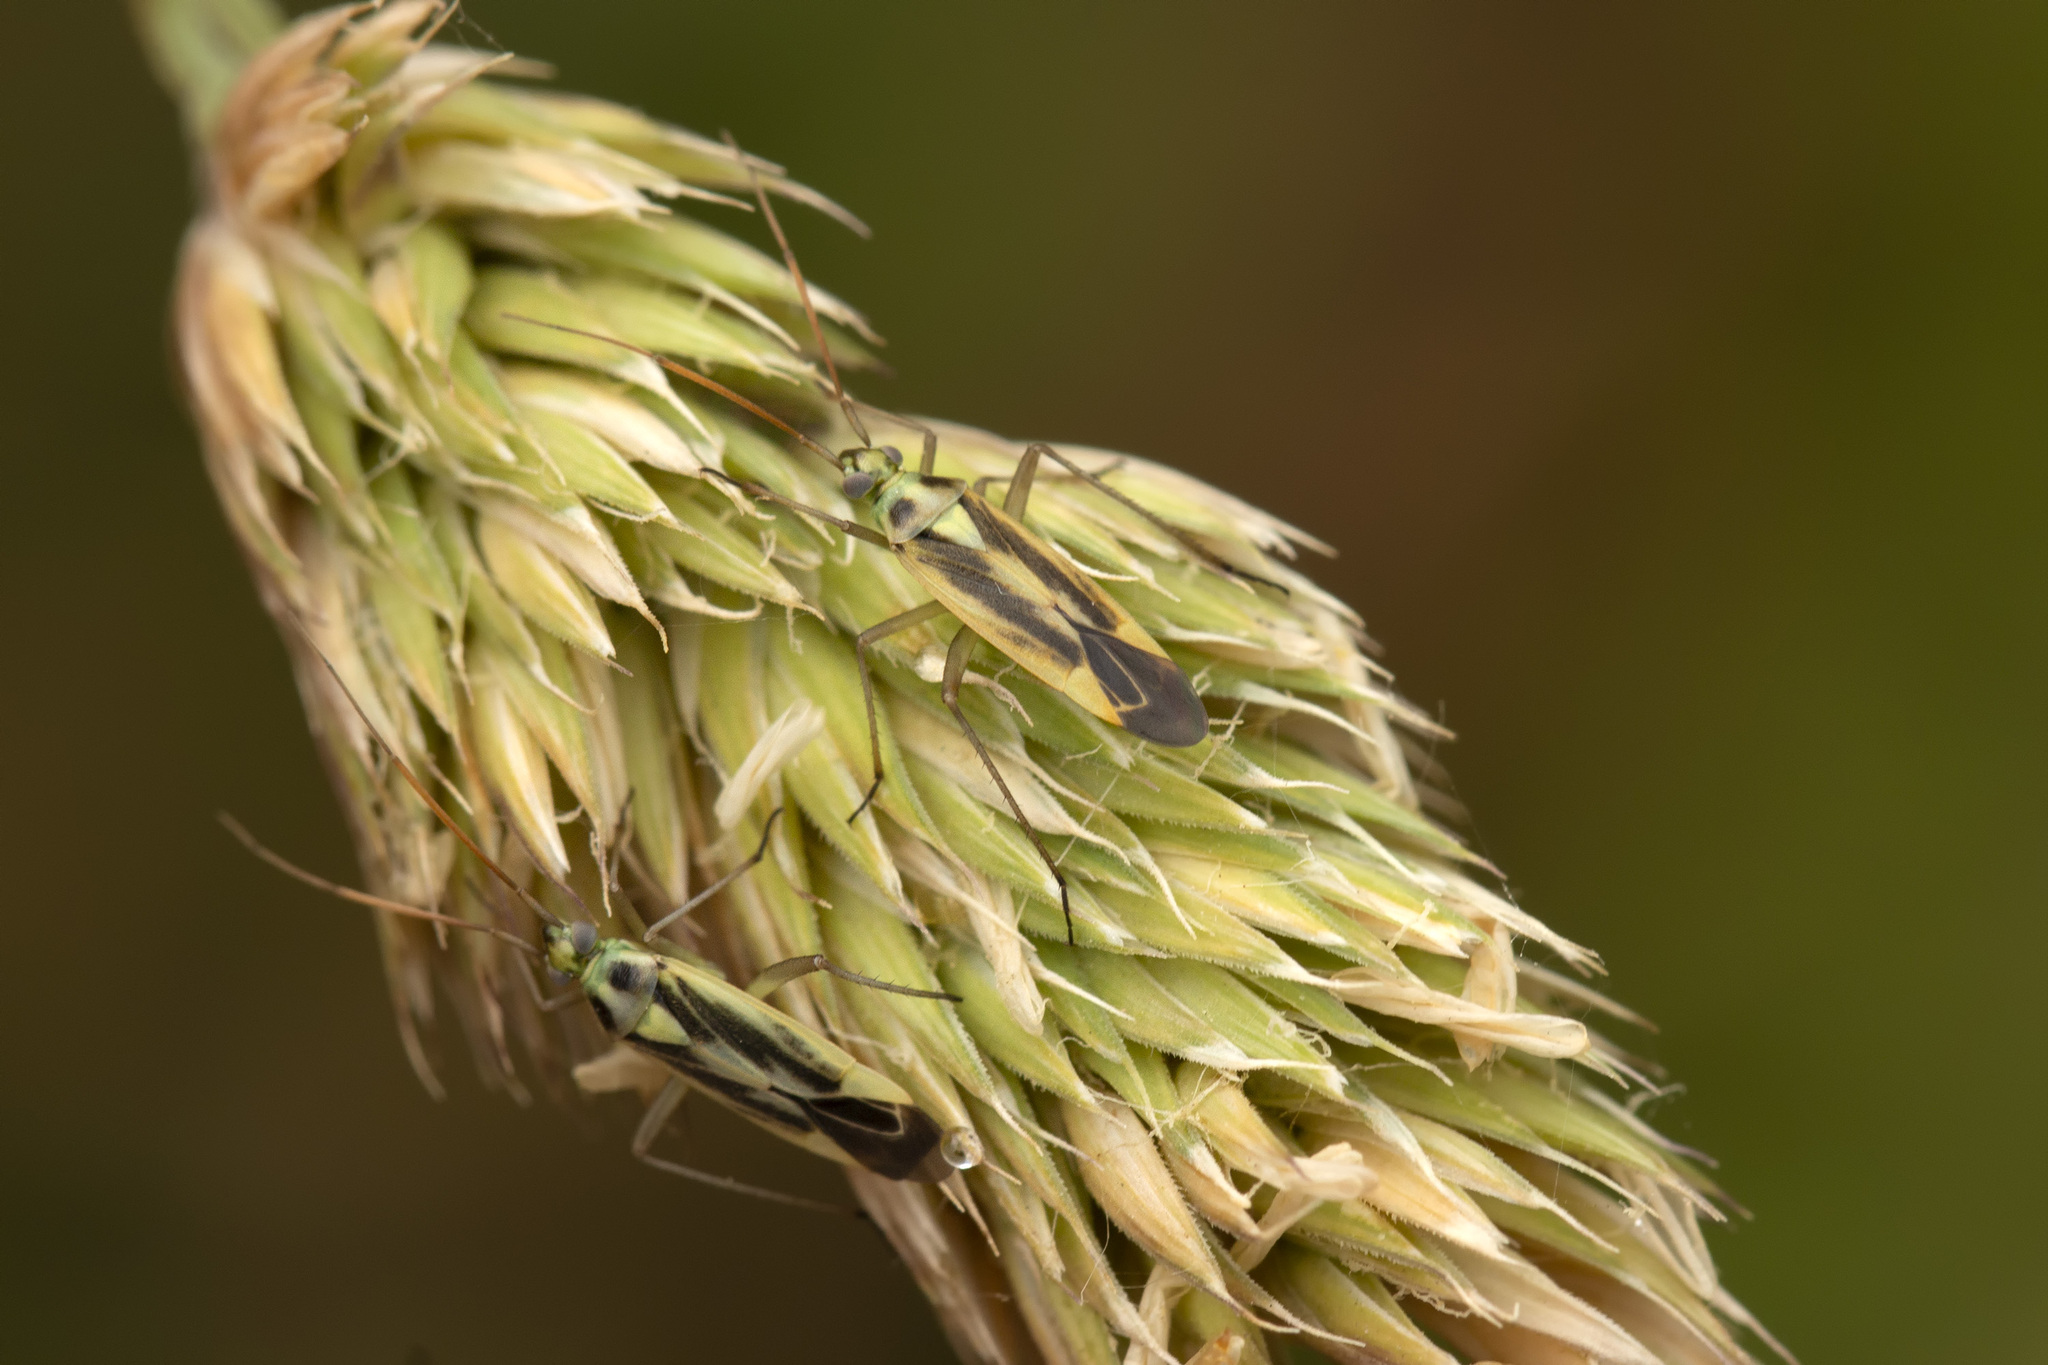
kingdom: Animalia
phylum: Arthropoda
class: Insecta
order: Hemiptera
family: Miridae
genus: Stenotus
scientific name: Stenotus binotatus
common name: Plant bug
